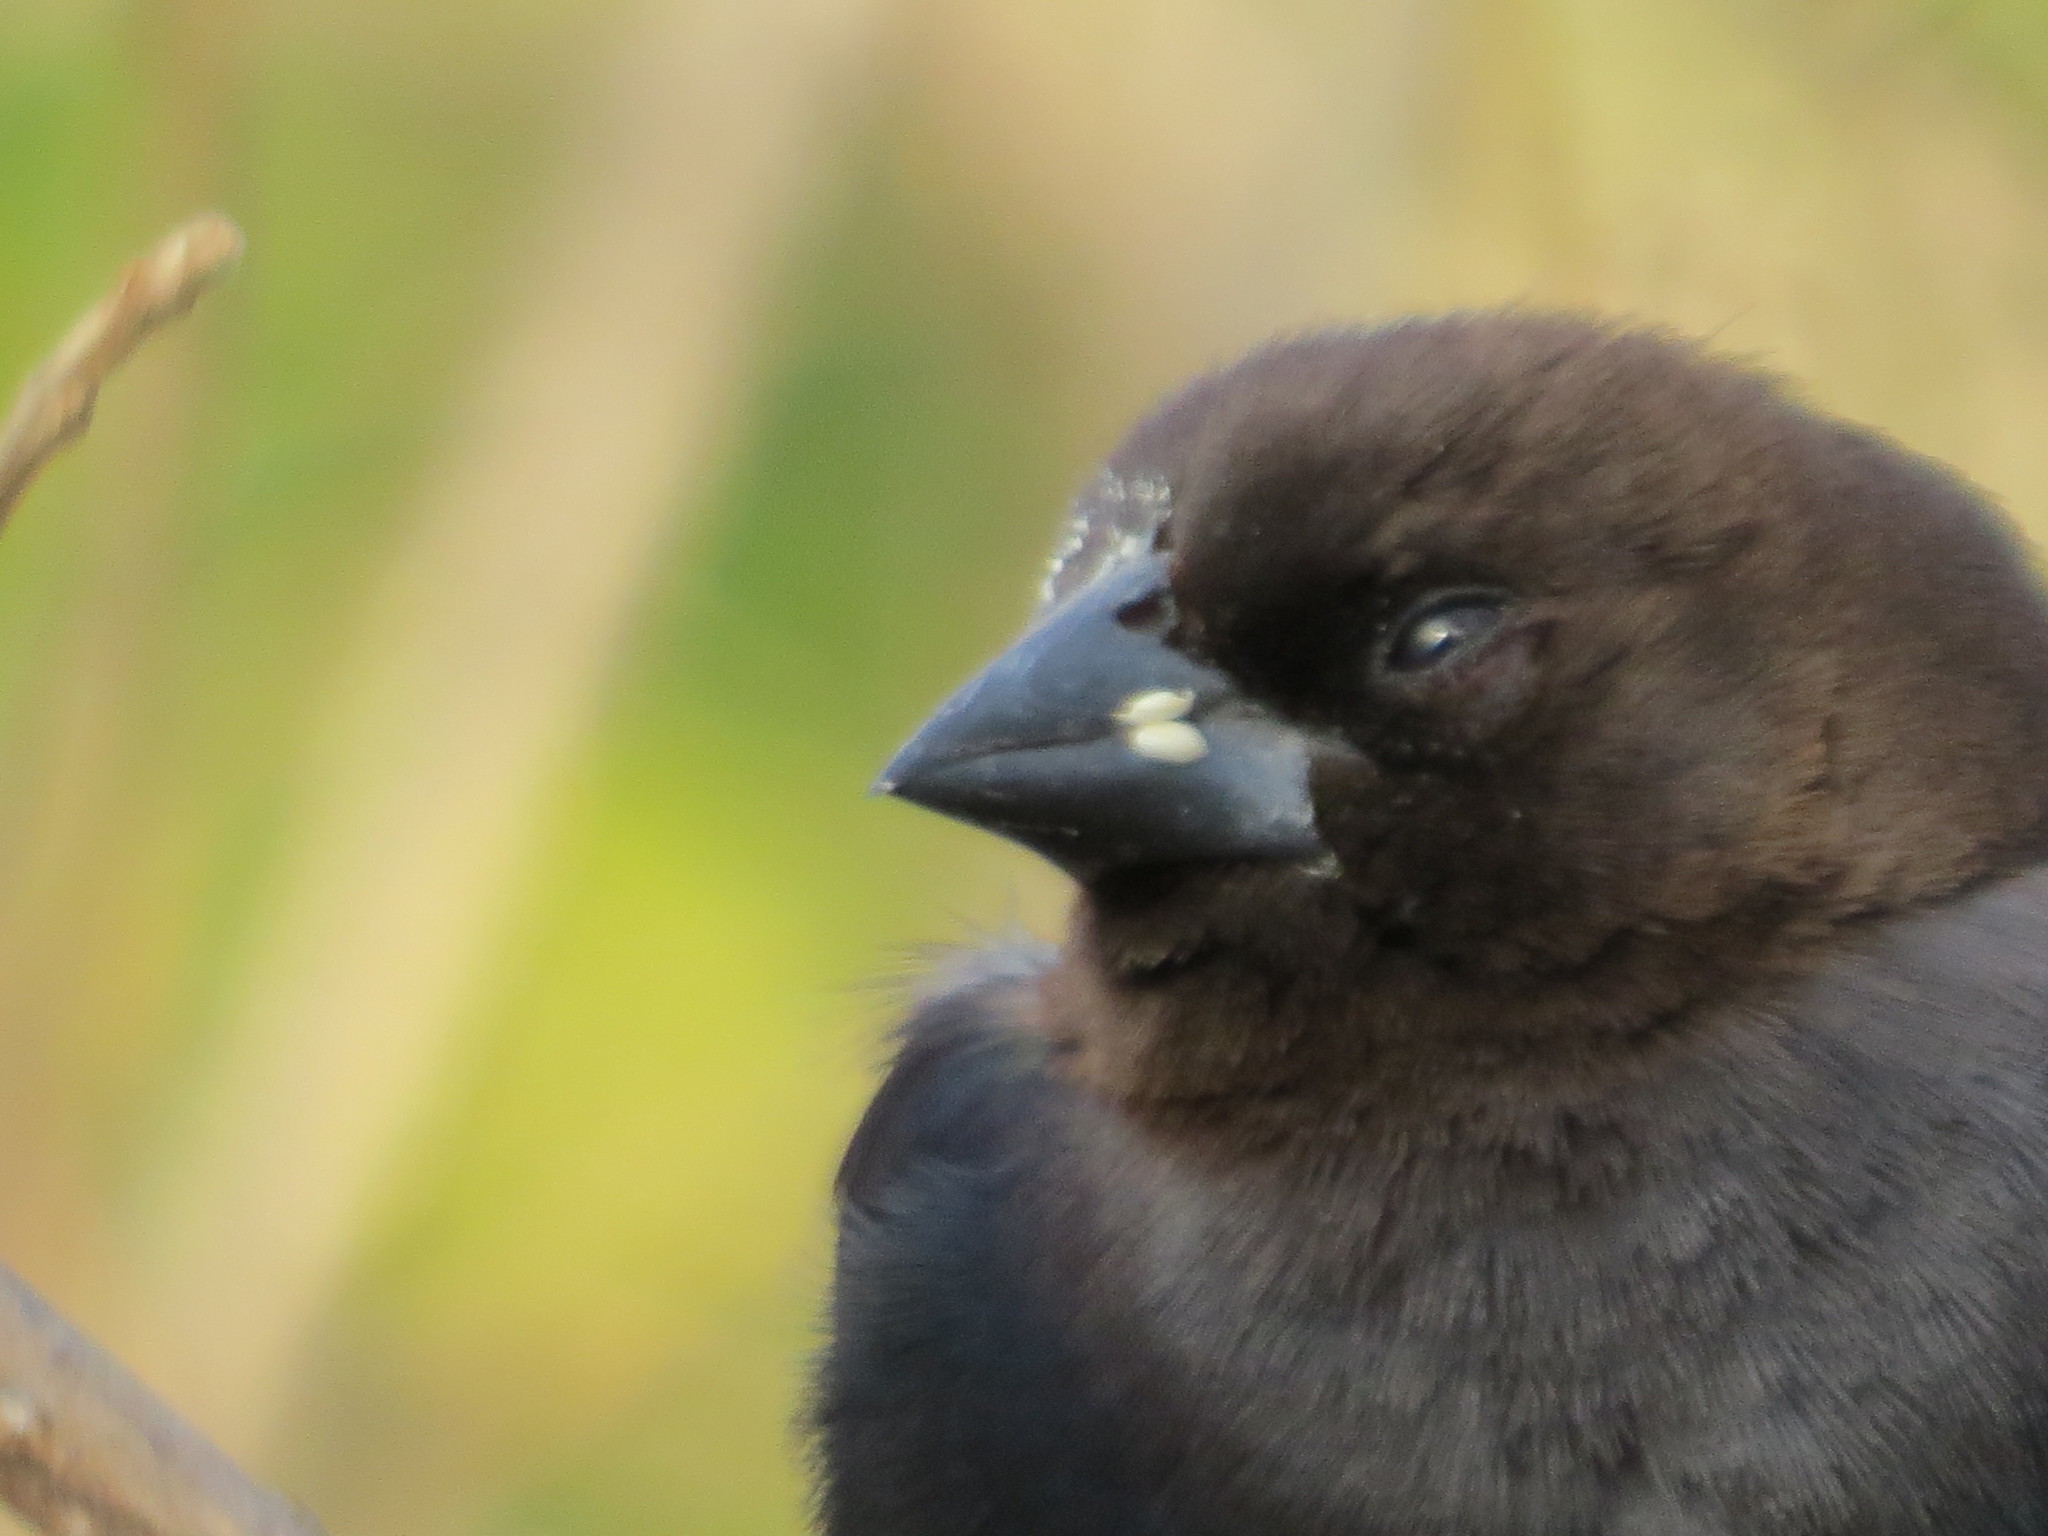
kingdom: Animalia
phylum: Chordata
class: Aves
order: Passeriformes
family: Icteridae
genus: Molothrus
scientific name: Molothrus ater
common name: Brown-headed cowbird
